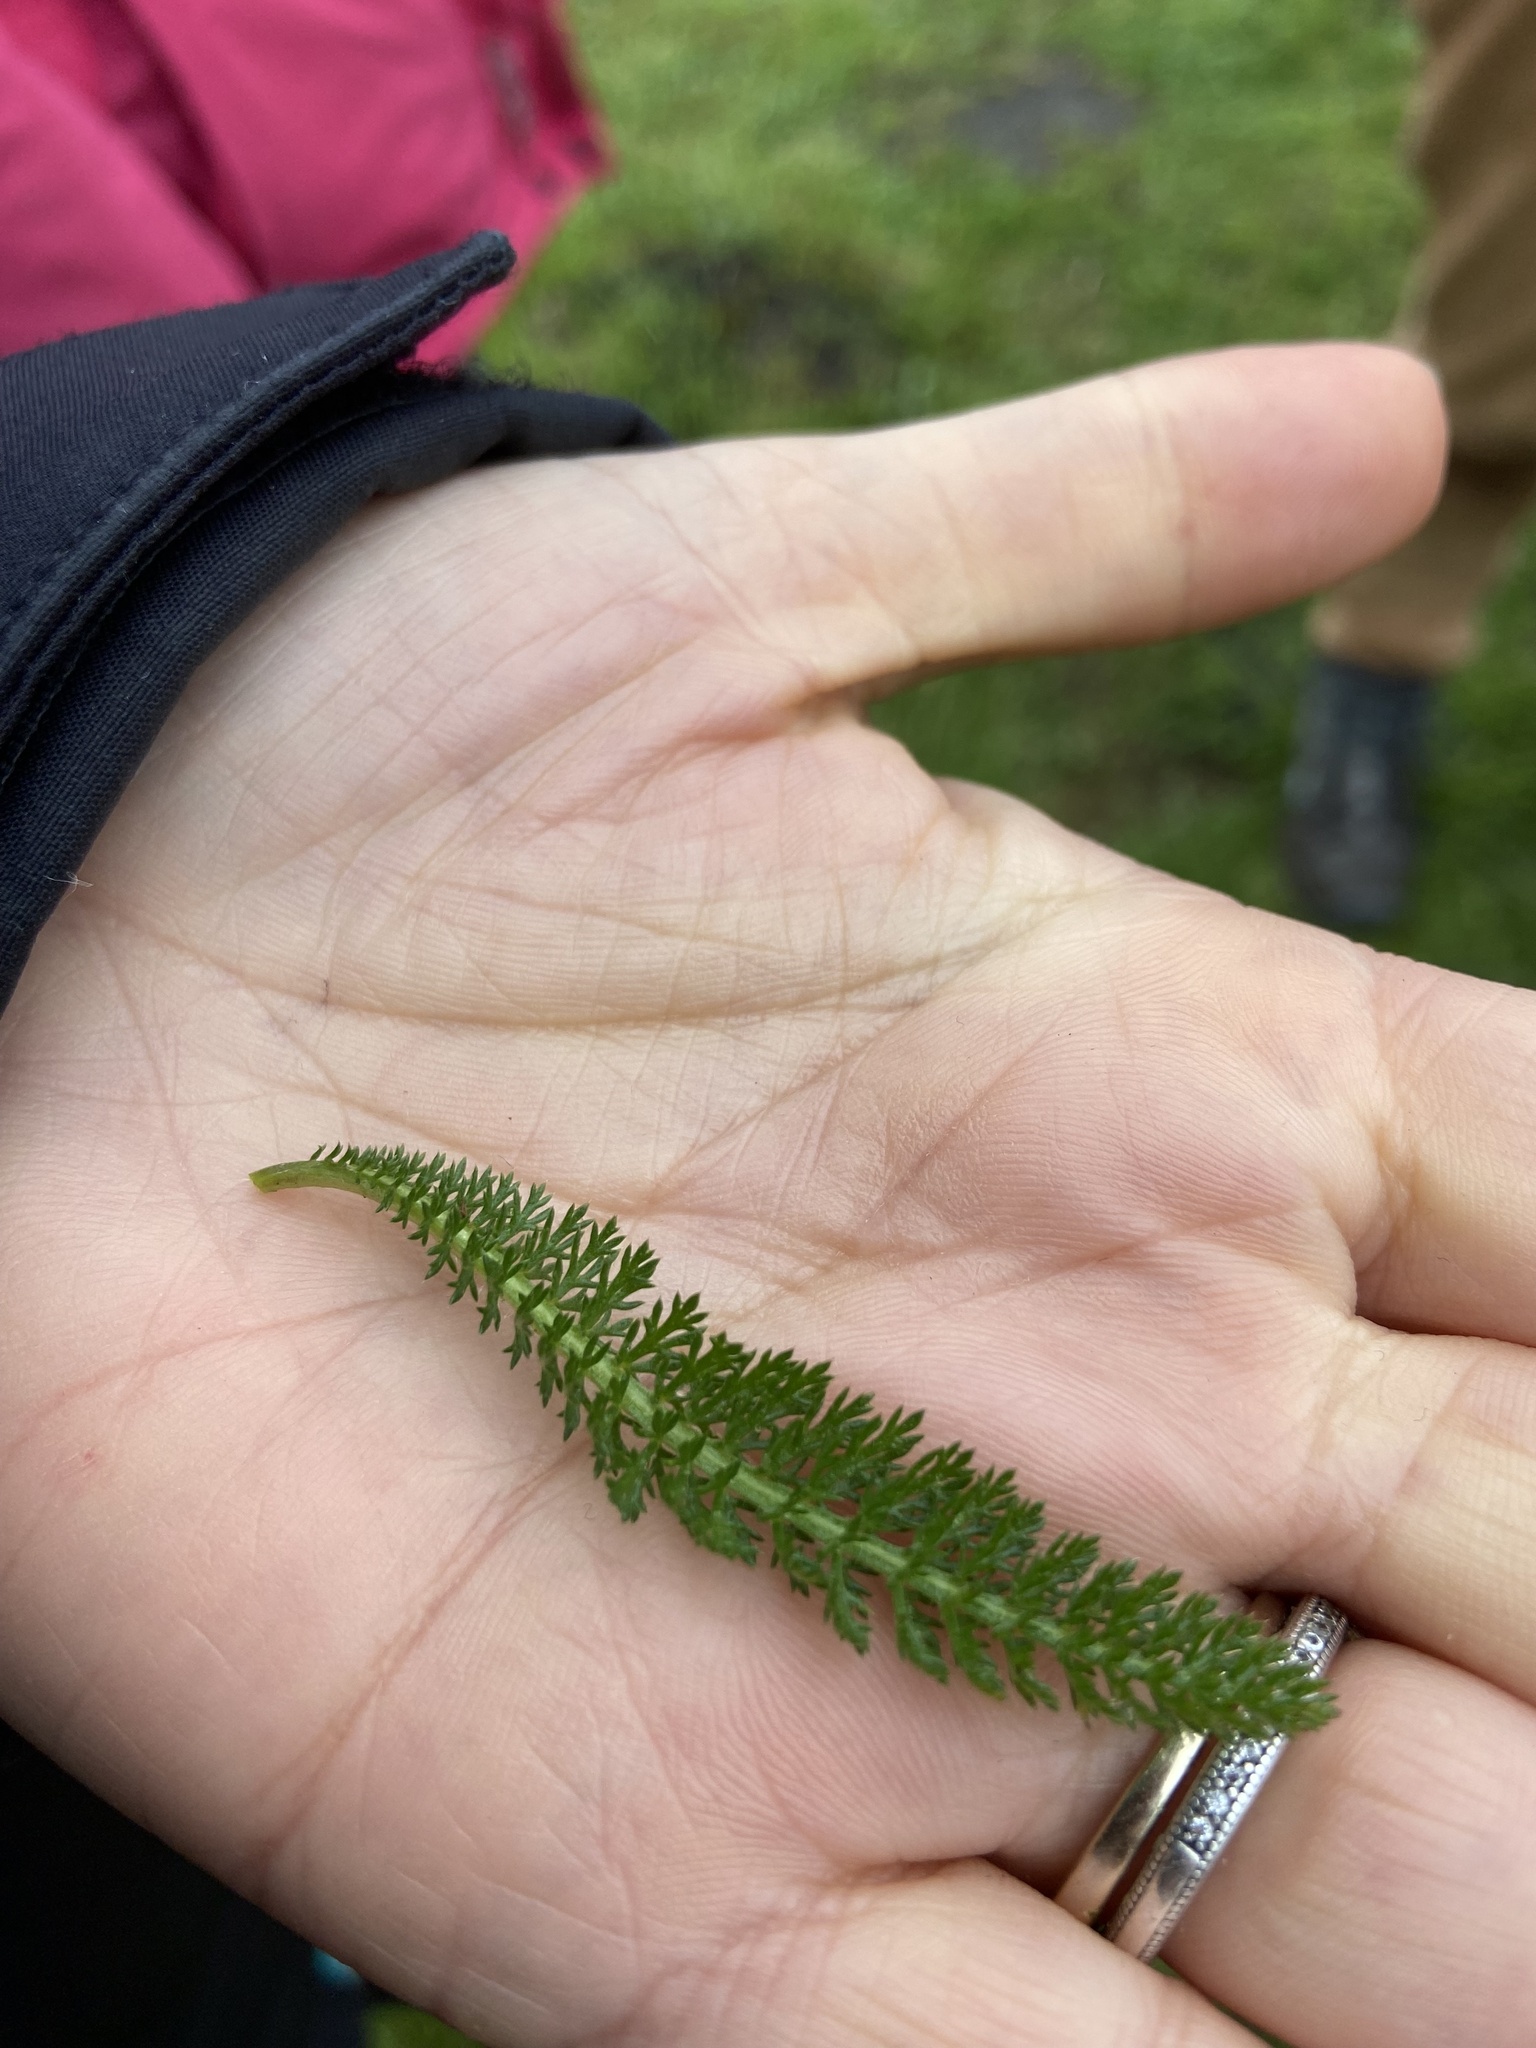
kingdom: Plantae
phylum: Tracheophyta
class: Magnoliopsida
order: Asterales
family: Asteraceae
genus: Achillea
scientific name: Achillea millefolium
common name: Yarrow
